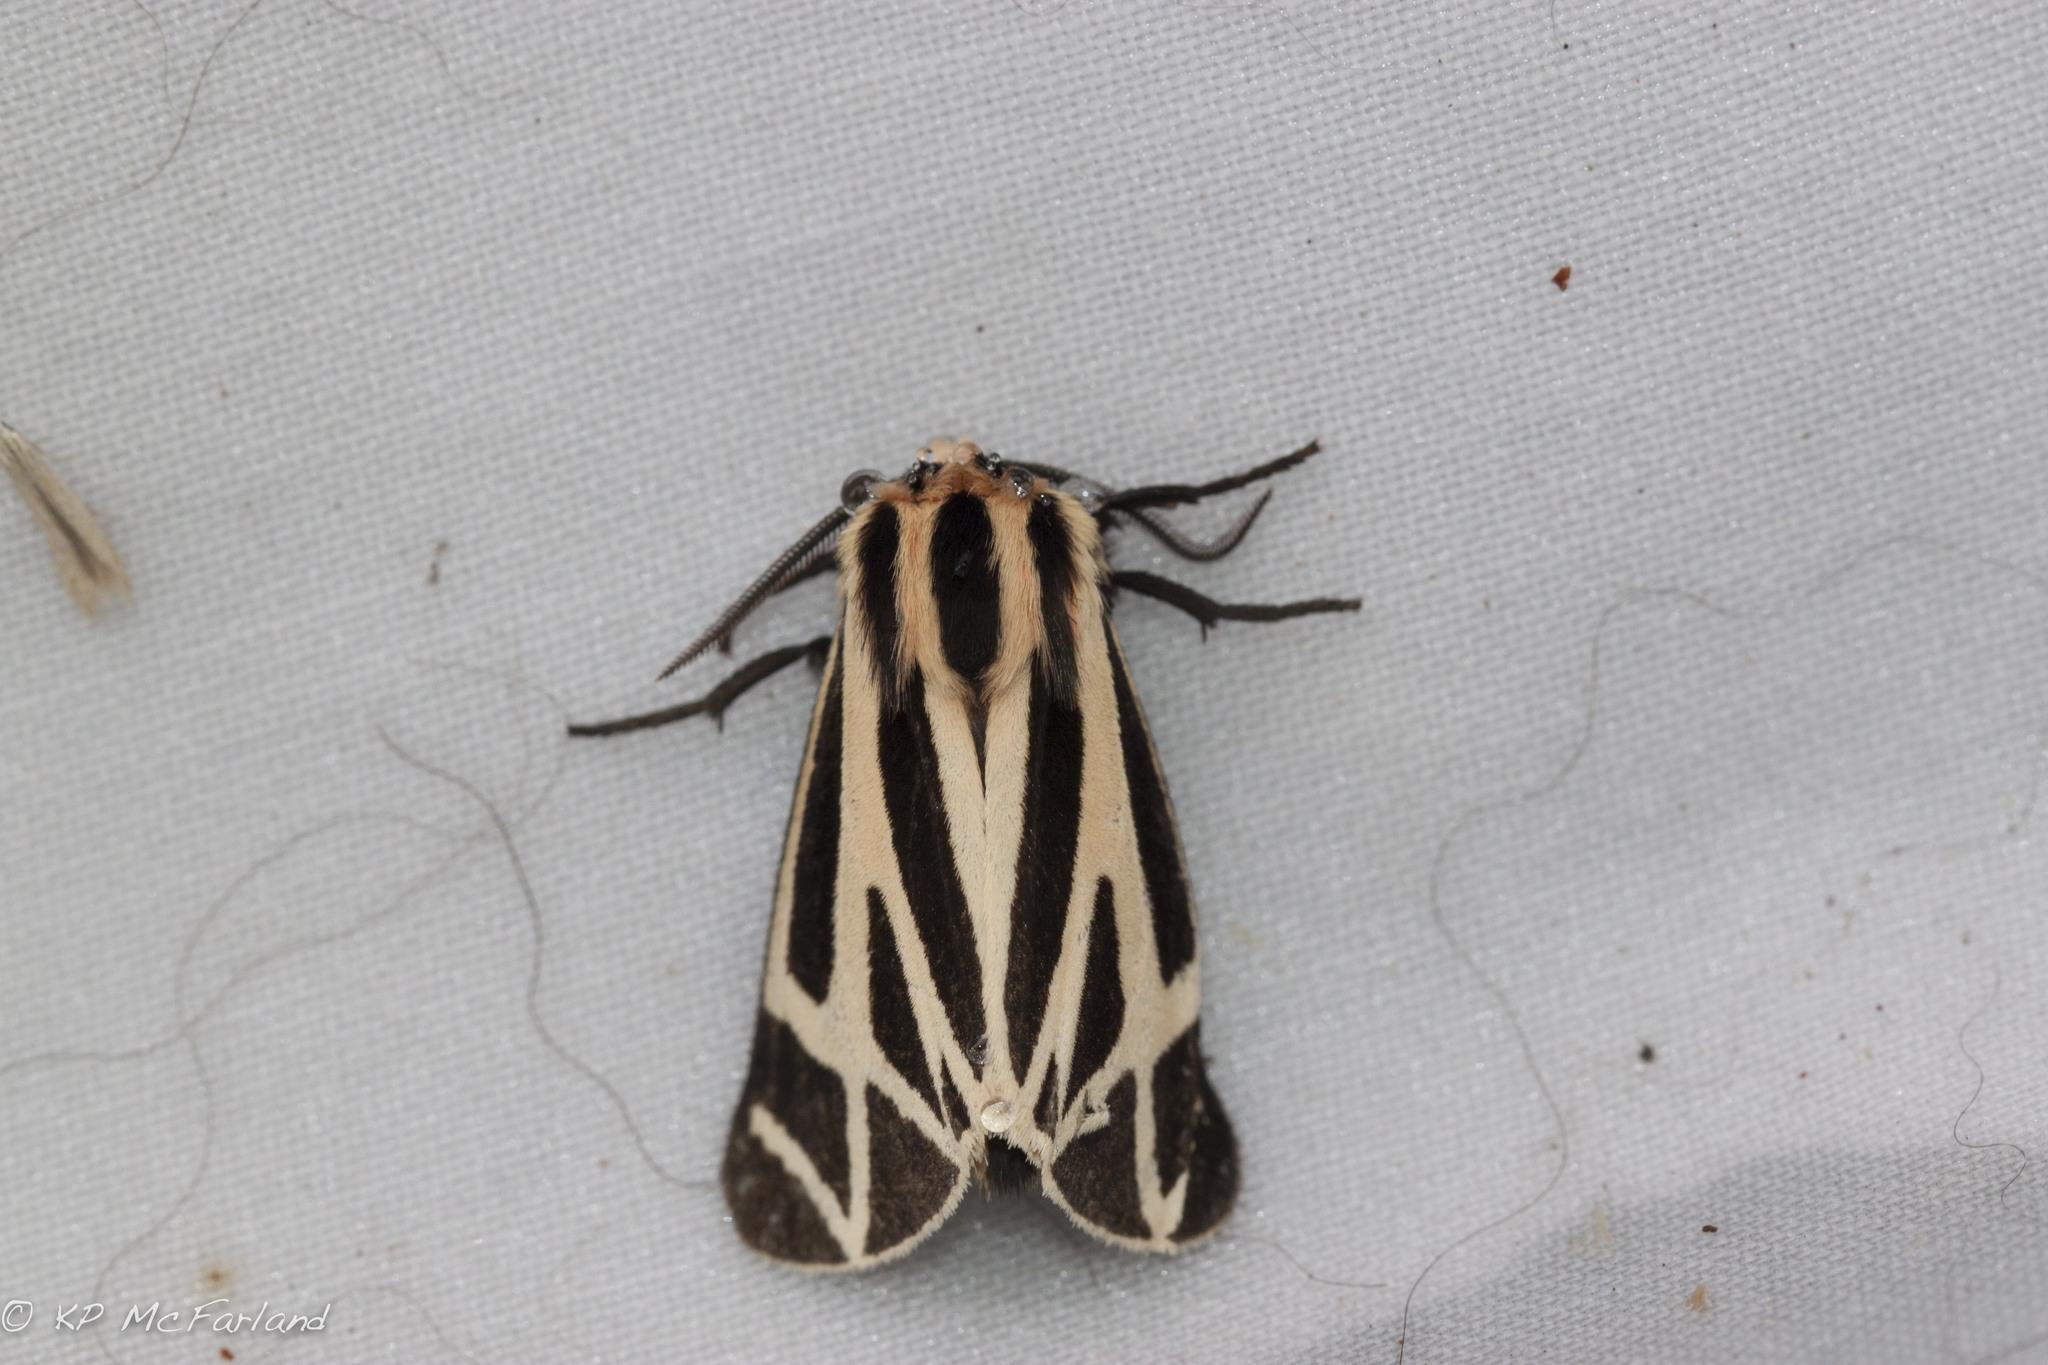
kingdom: Animalia
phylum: Arthropoda
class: Insecta
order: Lepidoptera
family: Erebidae
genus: Apantesis
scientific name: Apantesis phalerata
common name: Harnessed tiger moth
